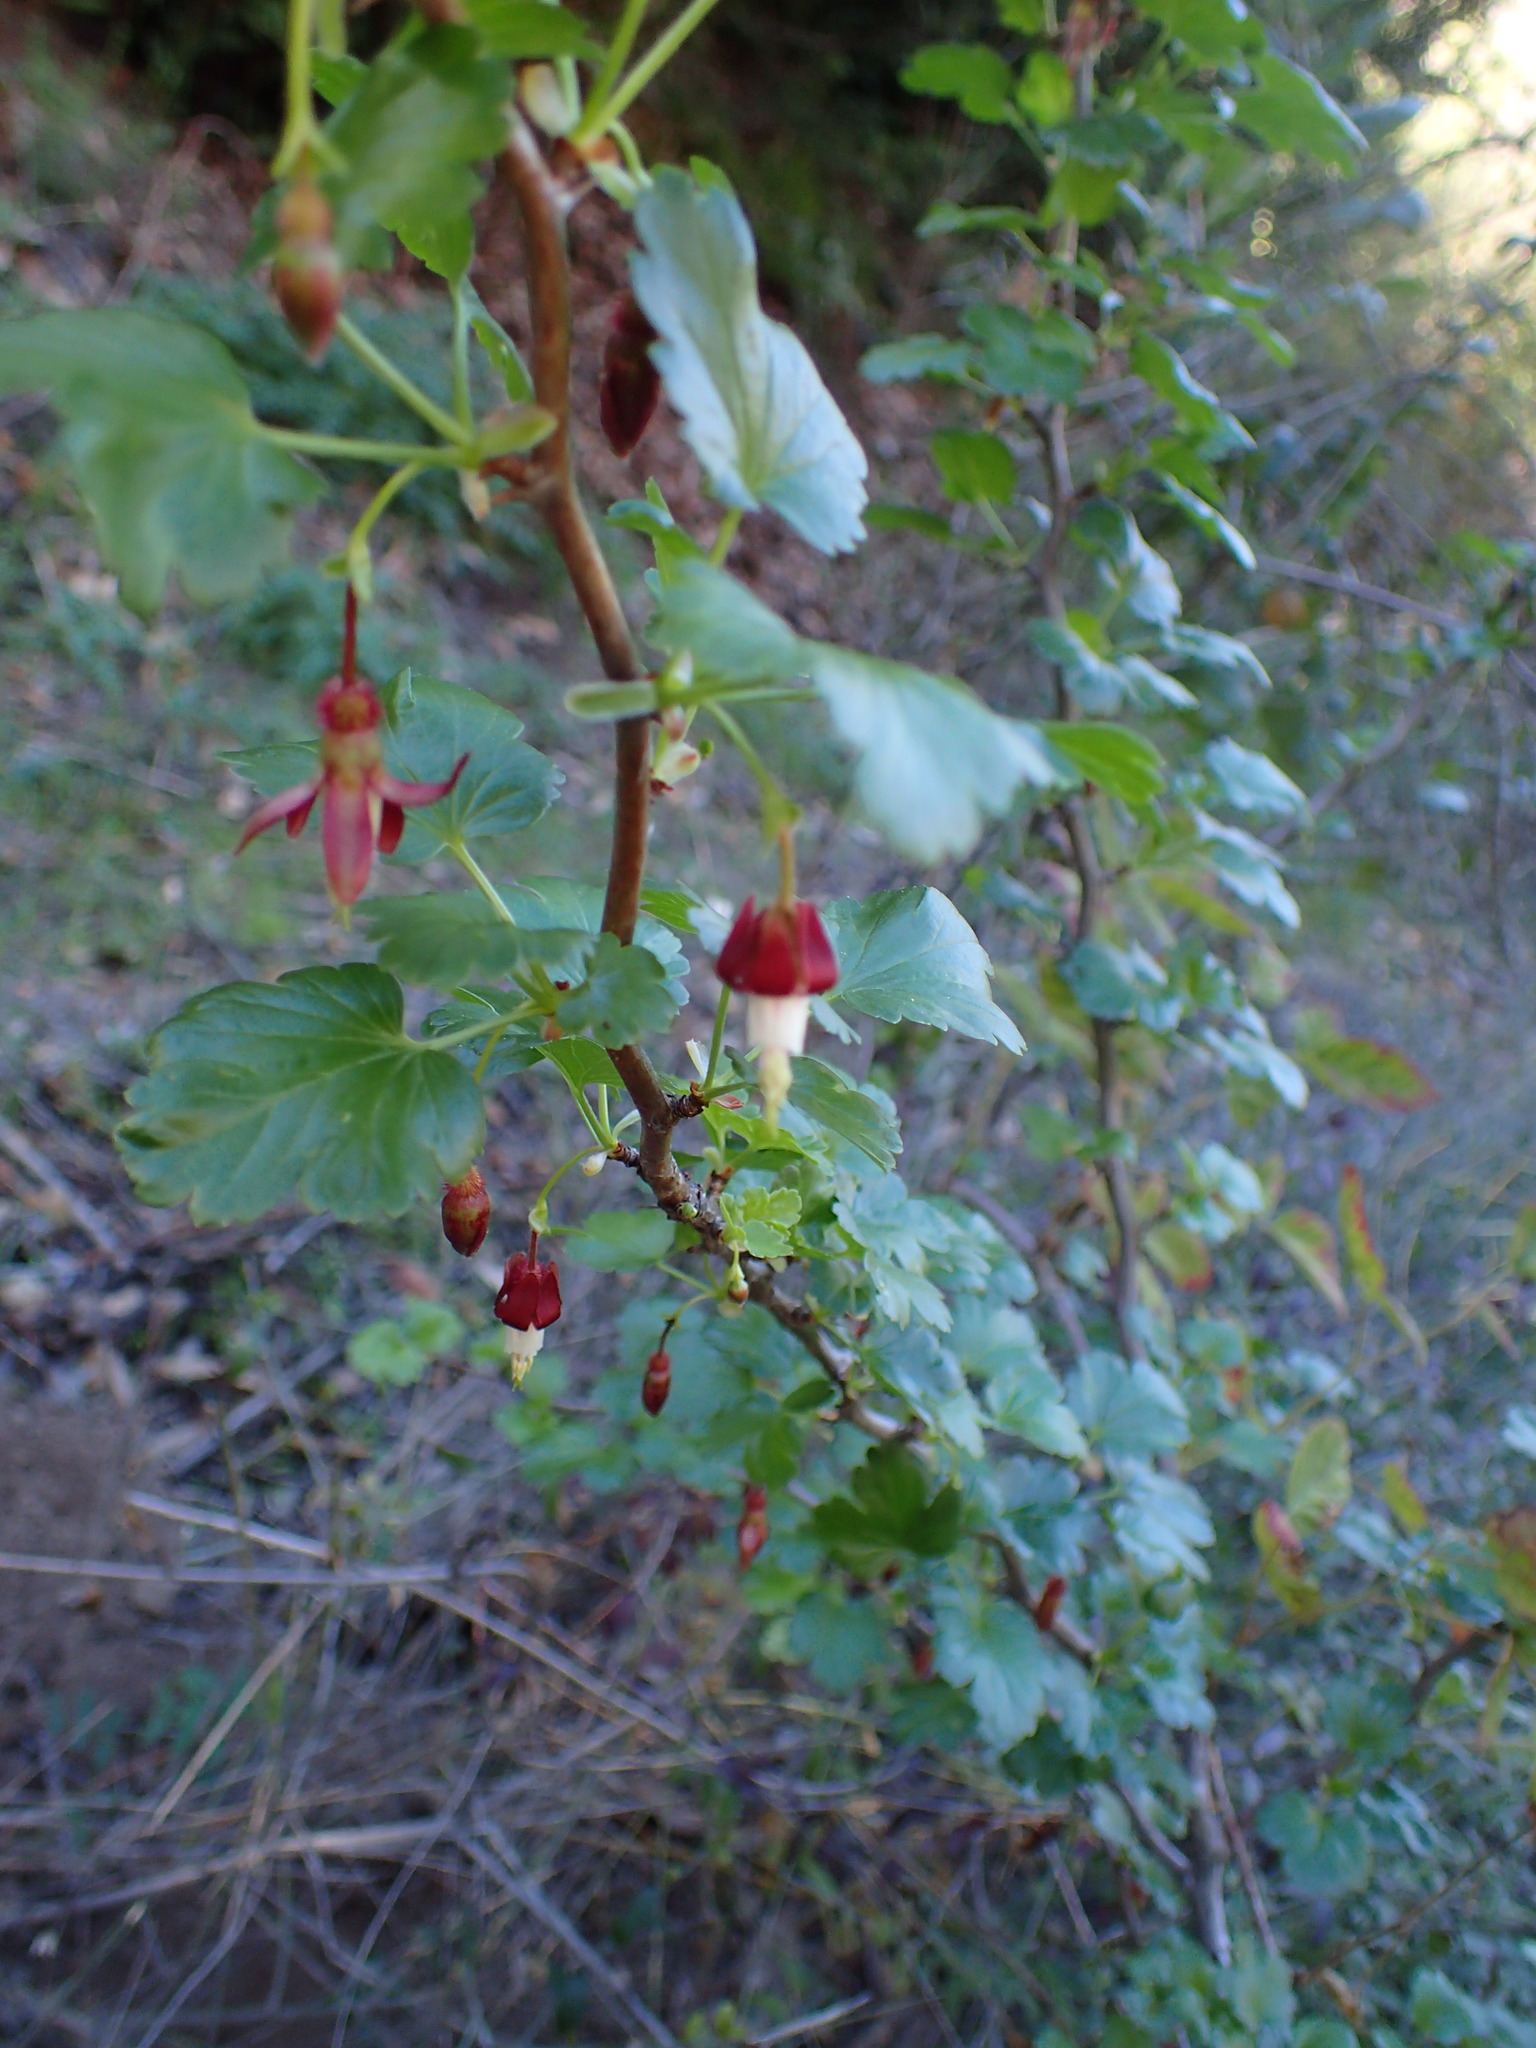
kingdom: Plantae
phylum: Tracheophyta
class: Magnoliopsida
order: Saxifragales
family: Grossulariaceae
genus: Ribes
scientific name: Ribes californicum
